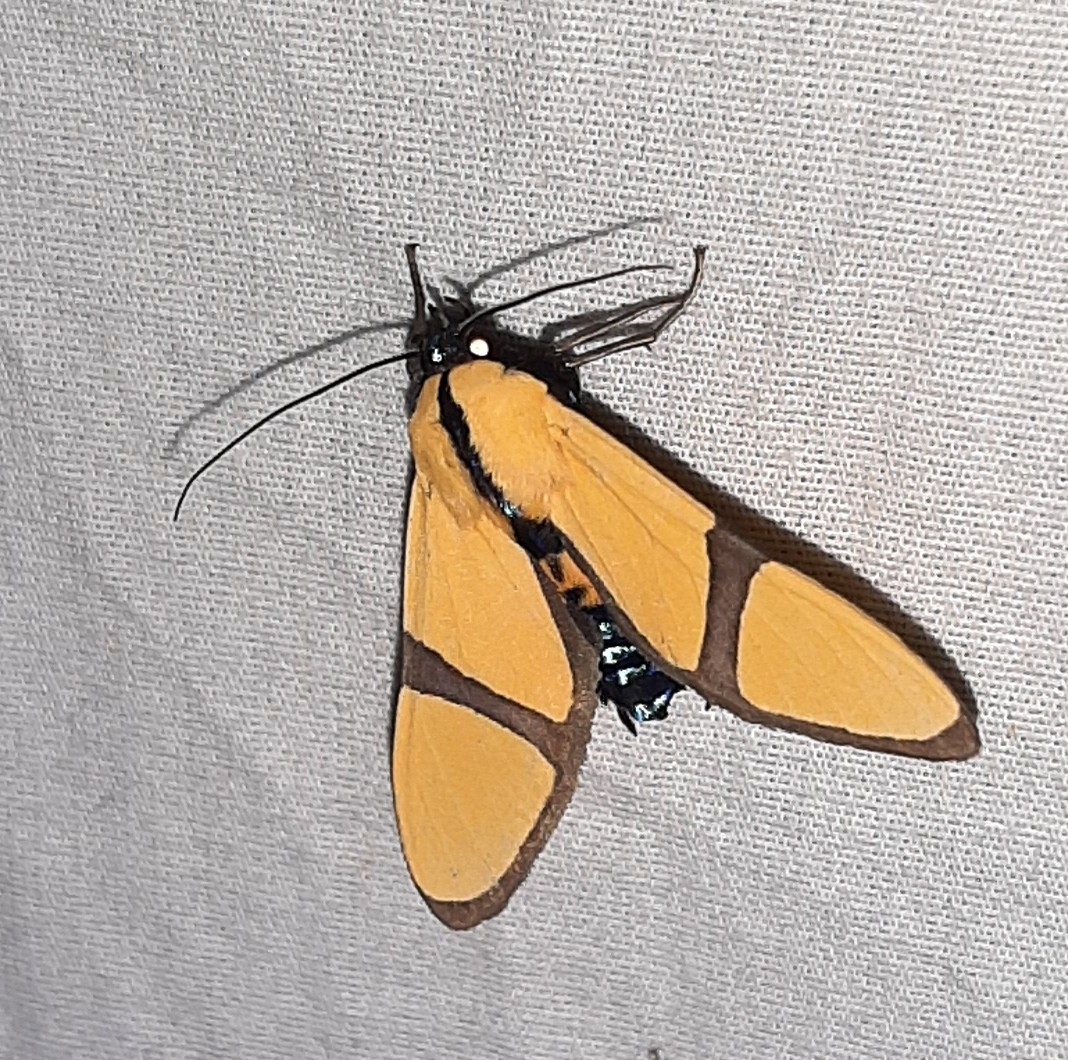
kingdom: Animalia
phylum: Arthropoda
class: Insecta
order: Lepidoptera
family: Erebidae
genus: Ormetica
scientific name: Ormetica ameoides
